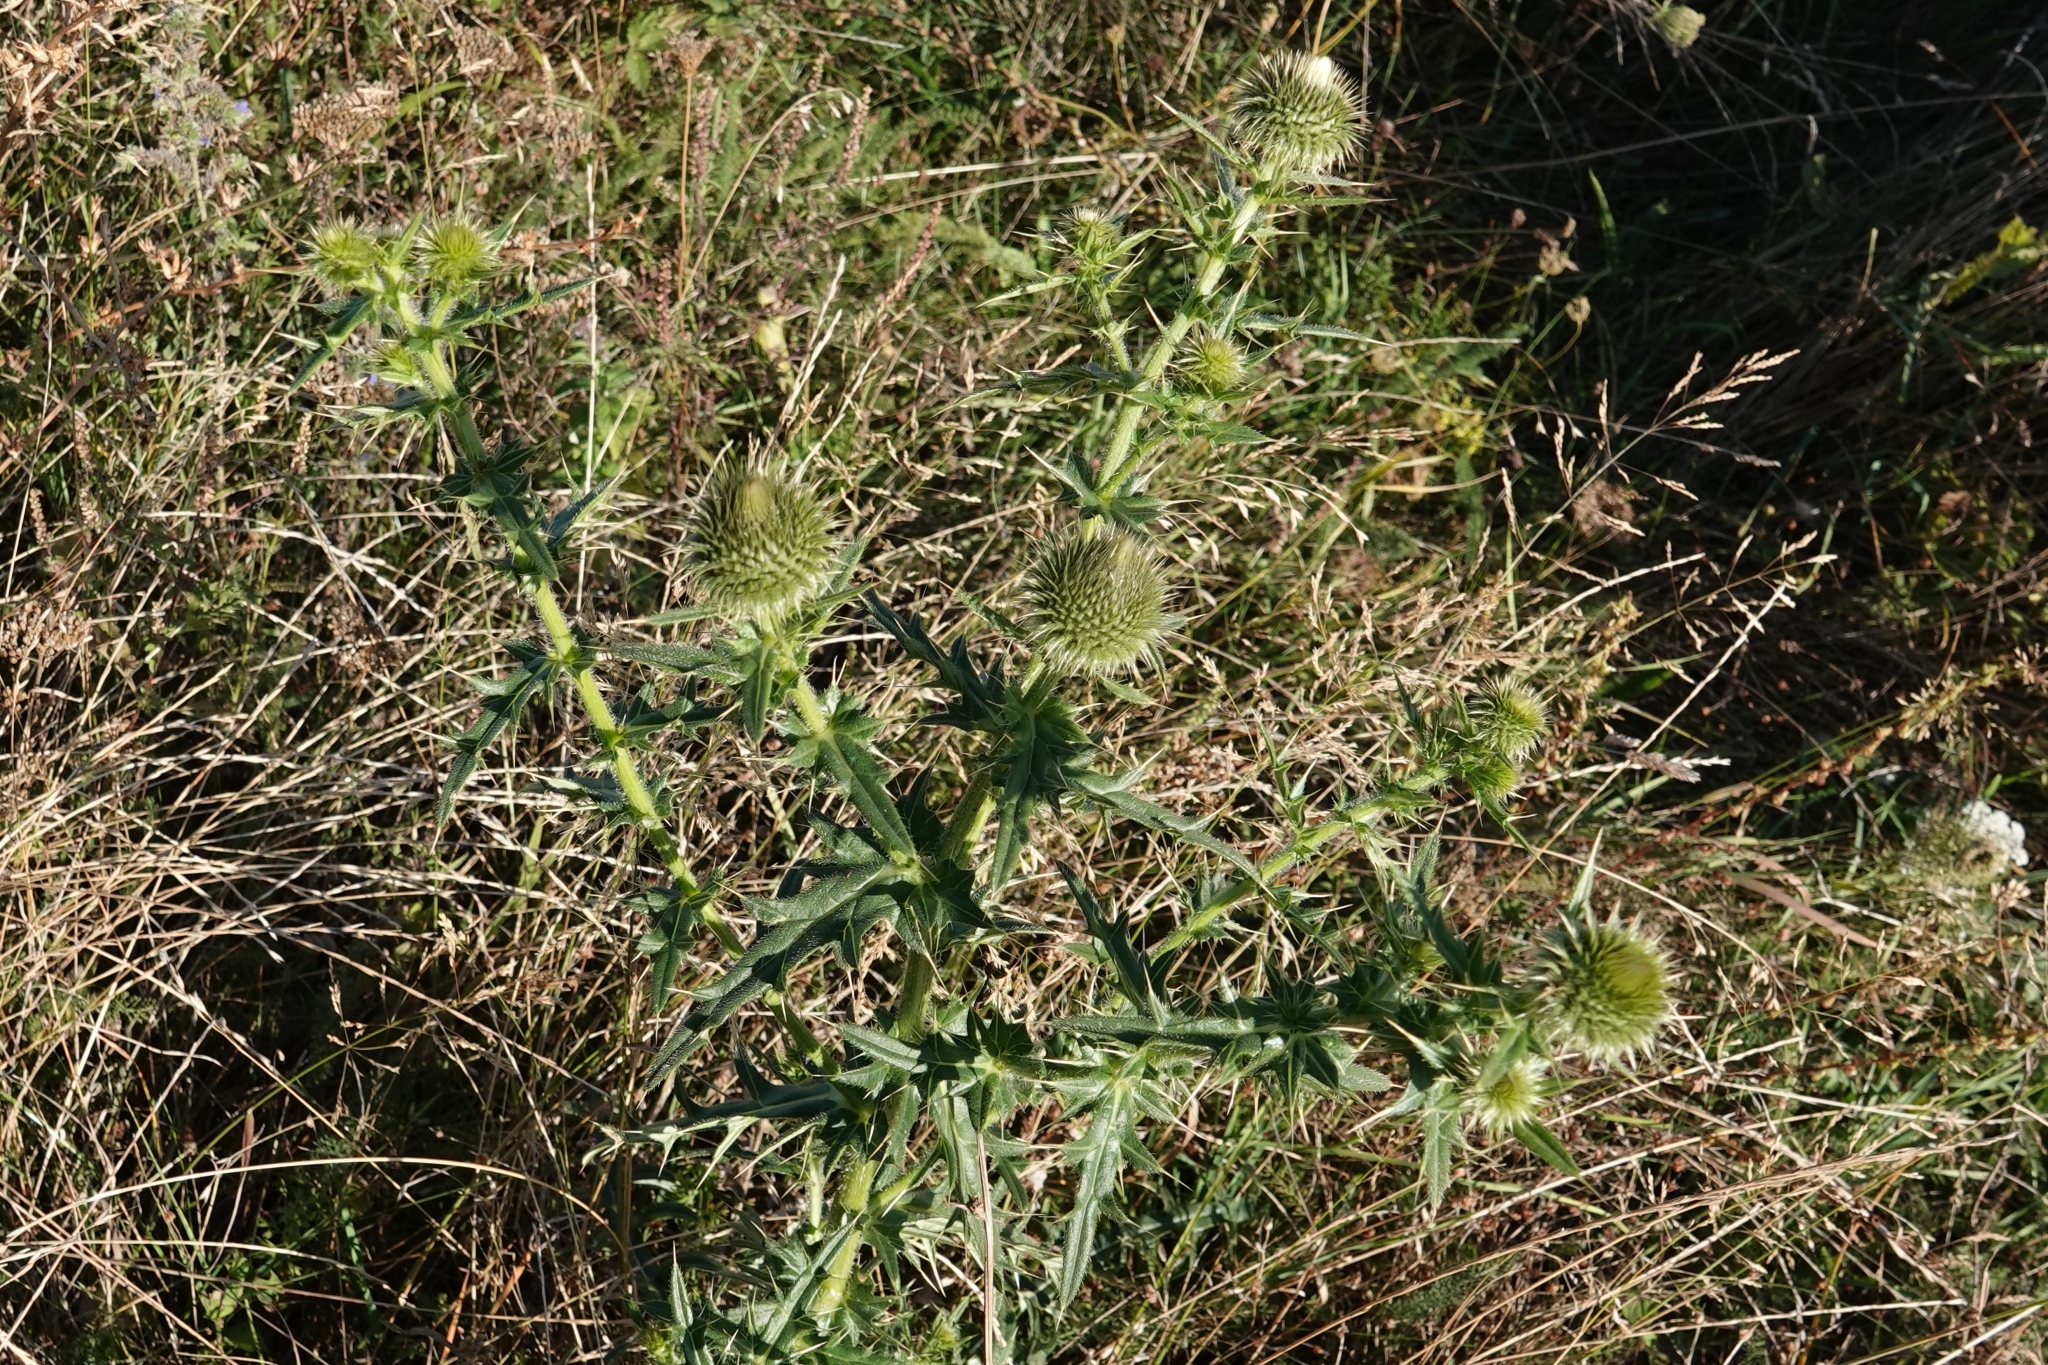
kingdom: Plantae
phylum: Tracheophyta
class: Magnoliopsida
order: Asterales
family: Asteraceae
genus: Lophiolepis
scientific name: Lophiolepis ciliata
